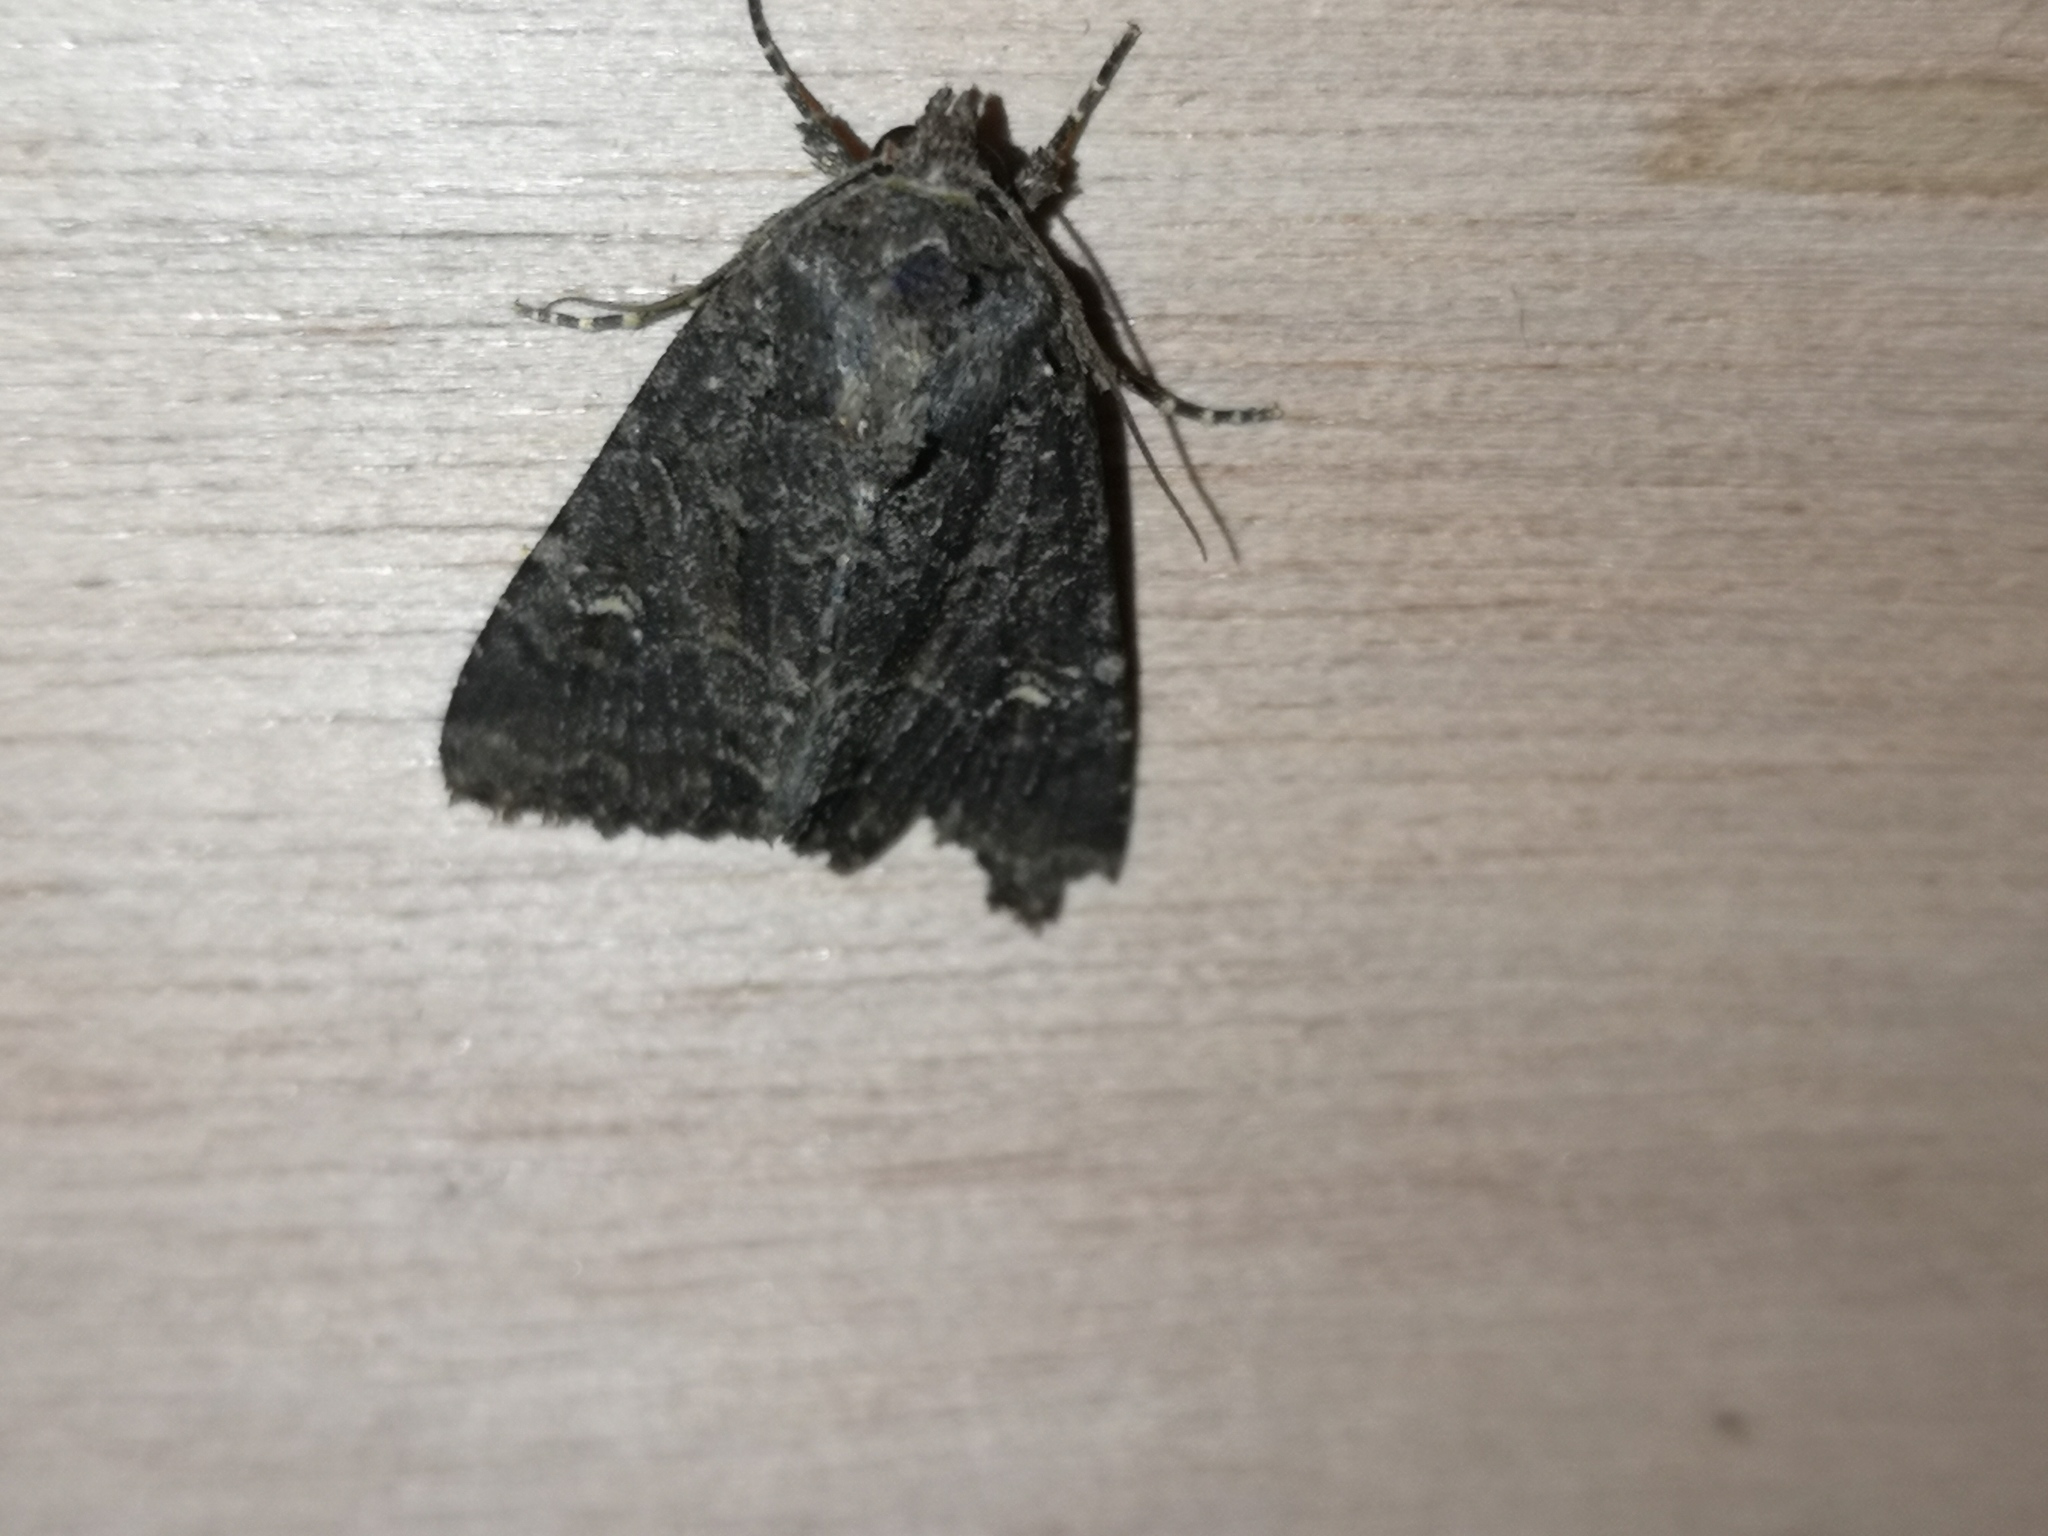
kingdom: Animalia
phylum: Arthropoda
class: Insecta
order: Lepidoptera
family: Noctuidae
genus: Mesapamea
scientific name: Mesapamea
